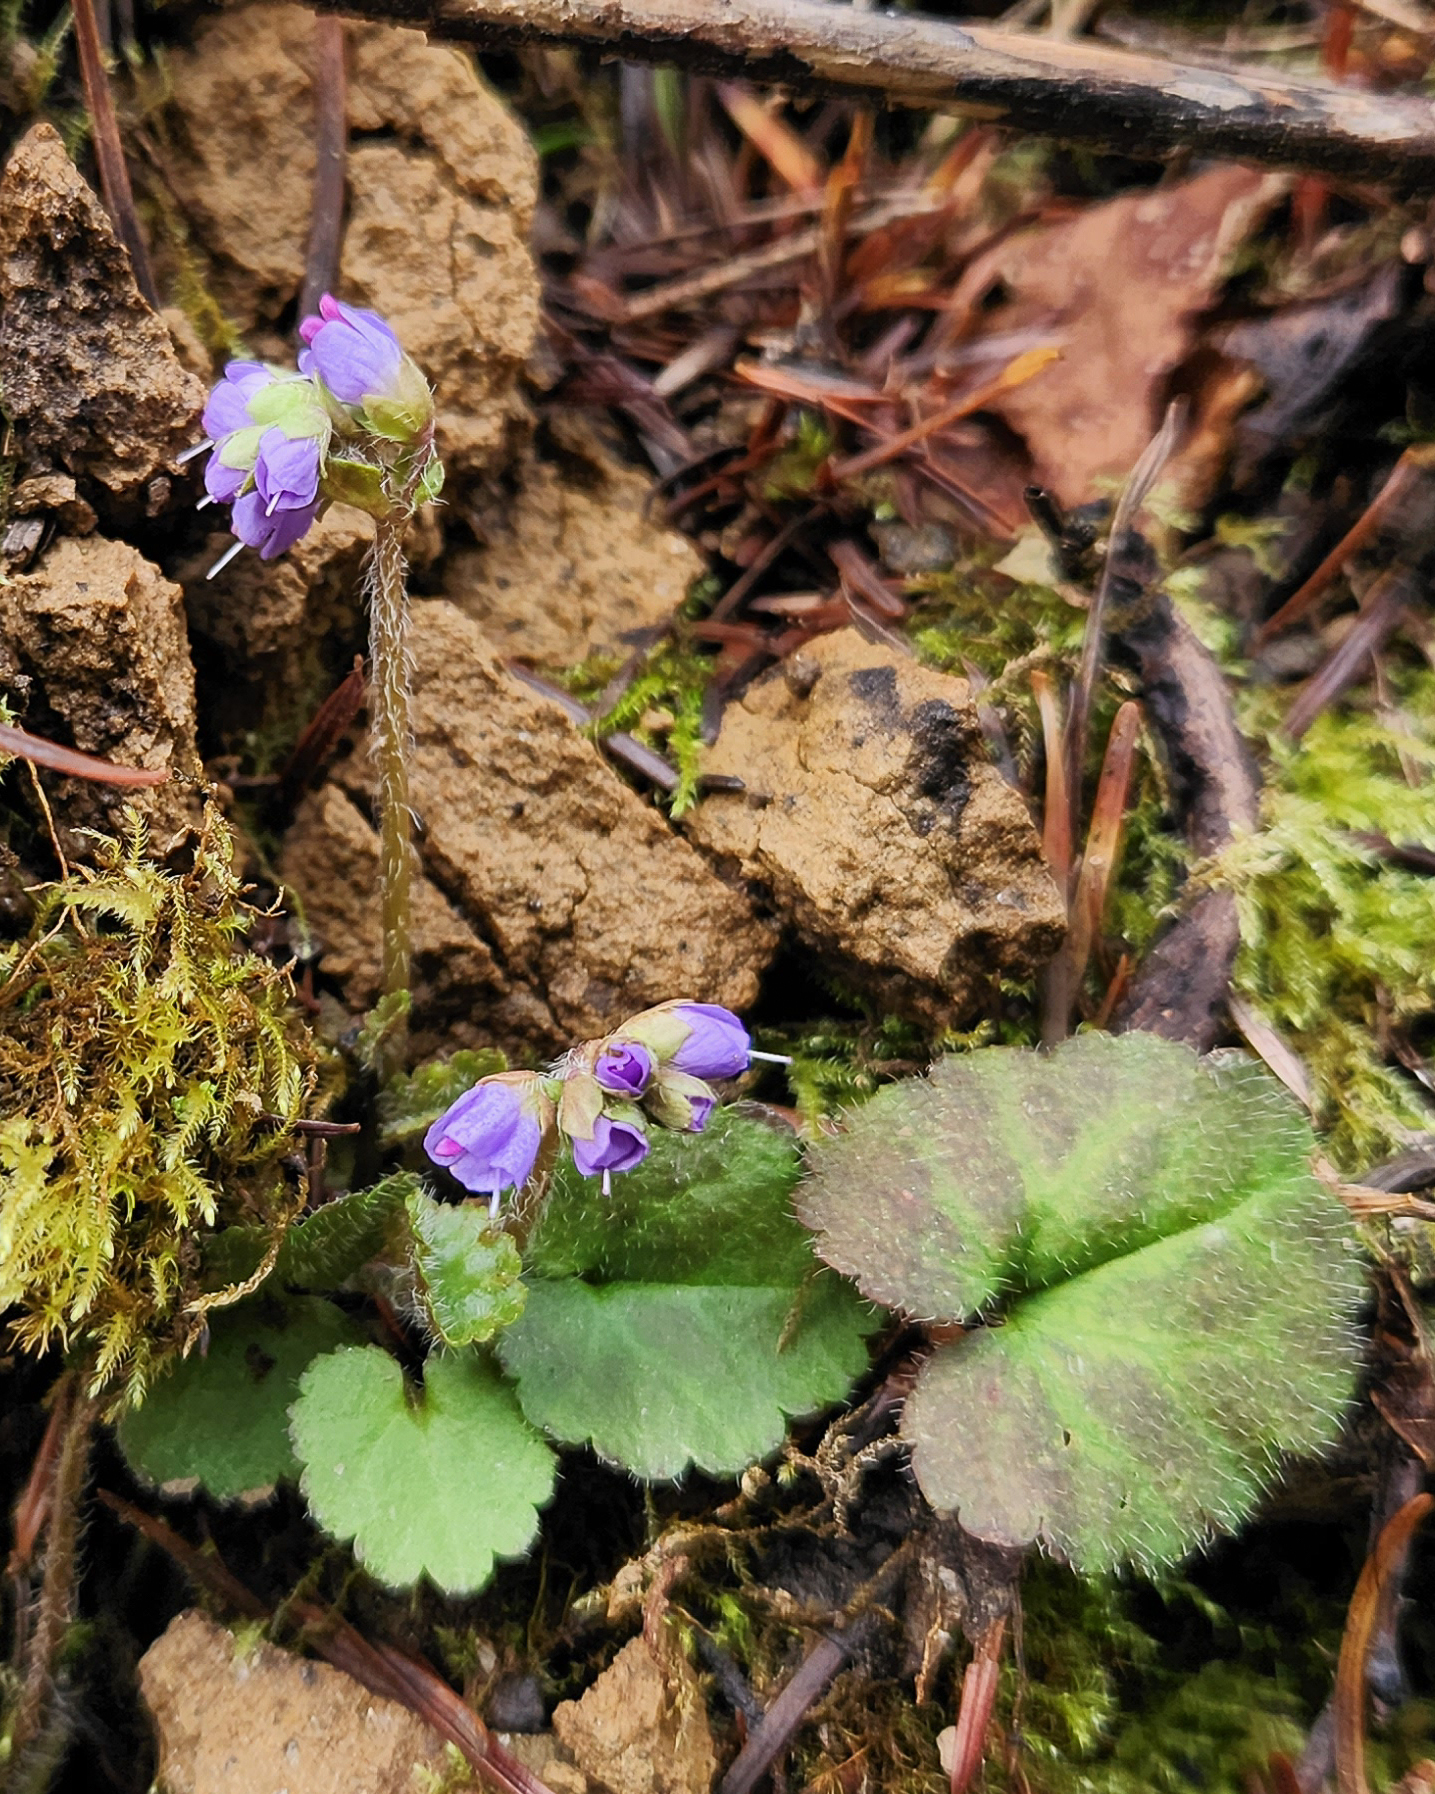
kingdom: Plantae
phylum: Tracheophyta
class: Magnoliopsida
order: Lamiales
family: Plantaginaceae
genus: Synthyris
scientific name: Synthyris reniformis
